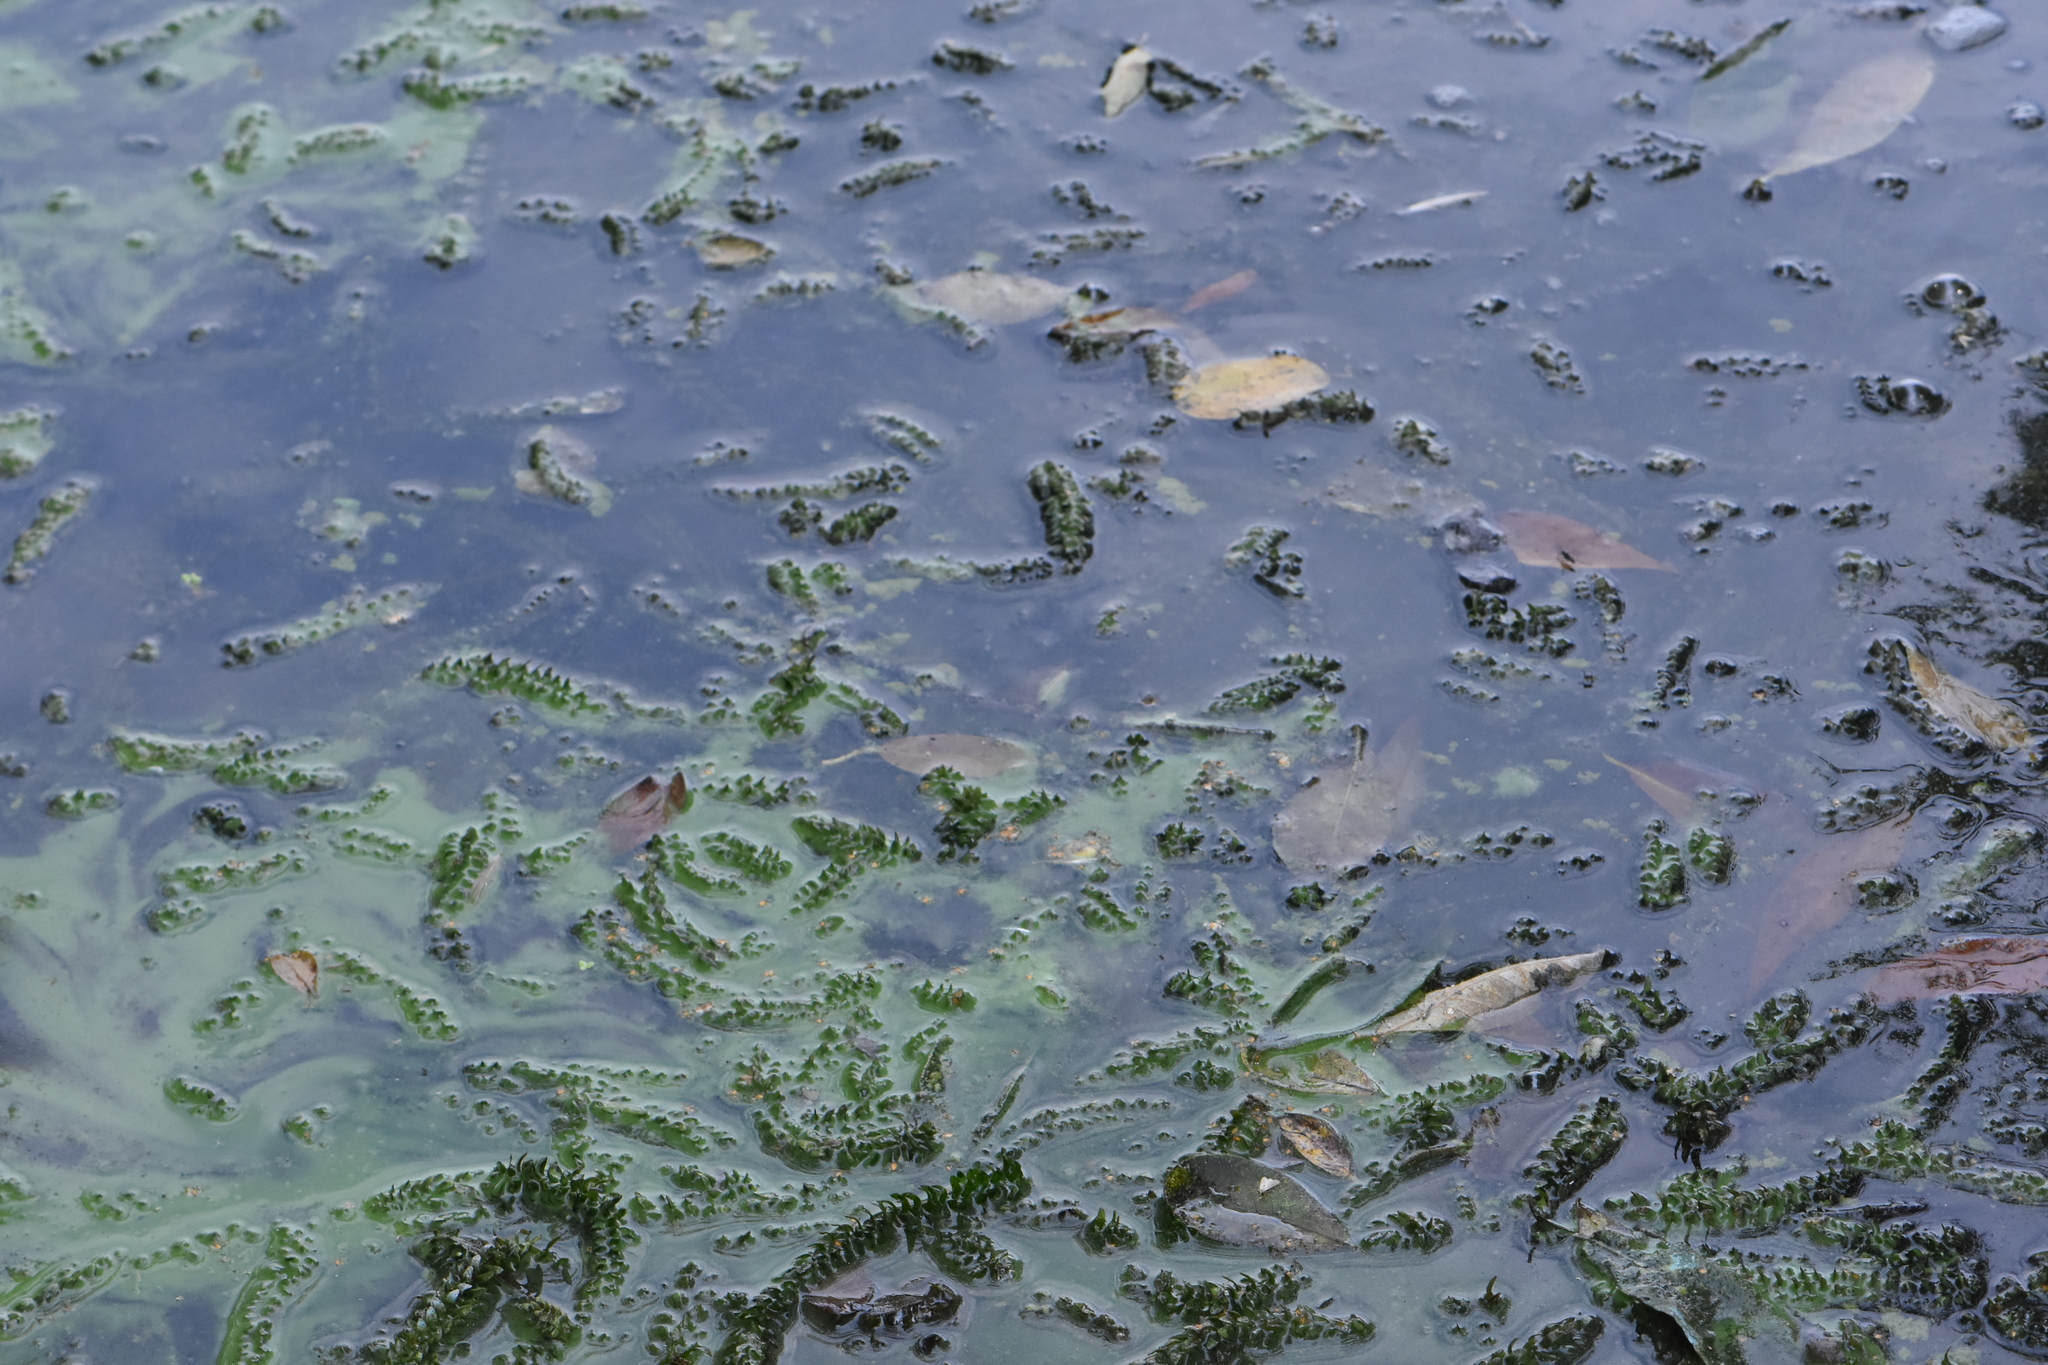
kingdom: Plantae
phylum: Tracheophyta
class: Liliopsida
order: Alismatales
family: Hydrocharitaceae
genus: Elodea
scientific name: Elodea canadensis
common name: Canadian waterweed
